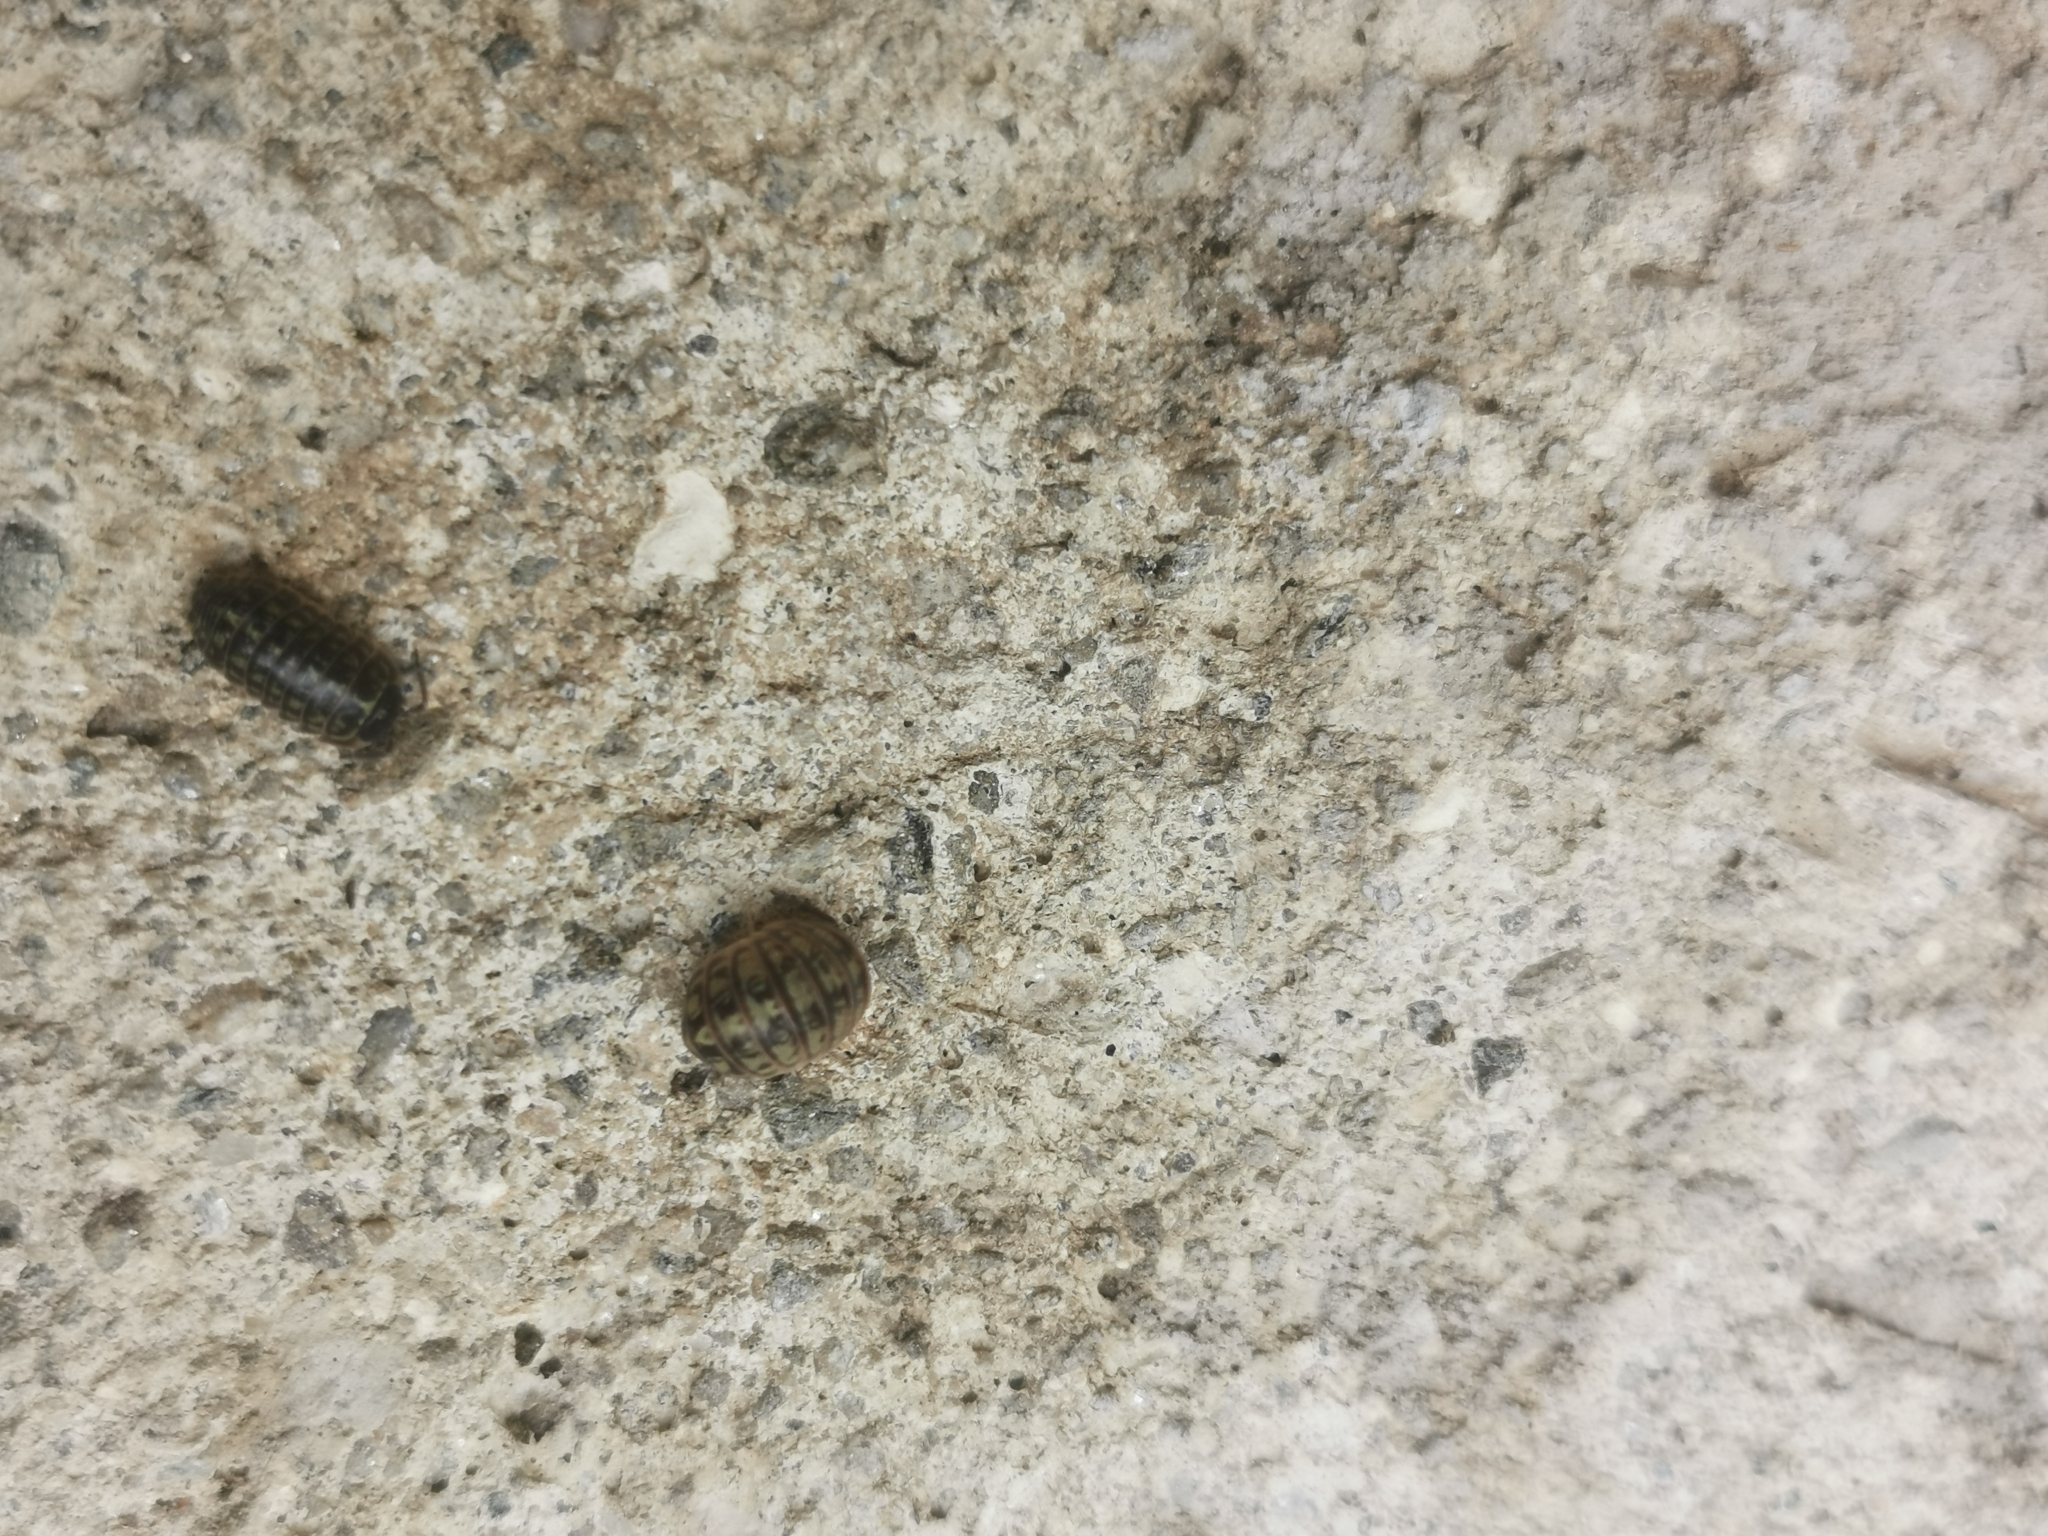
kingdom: Animalia
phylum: Arthropoda
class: Malacostraca
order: Isopoda
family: Armadillidiidae
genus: Armadillidium
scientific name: Armadillidium versicolor
